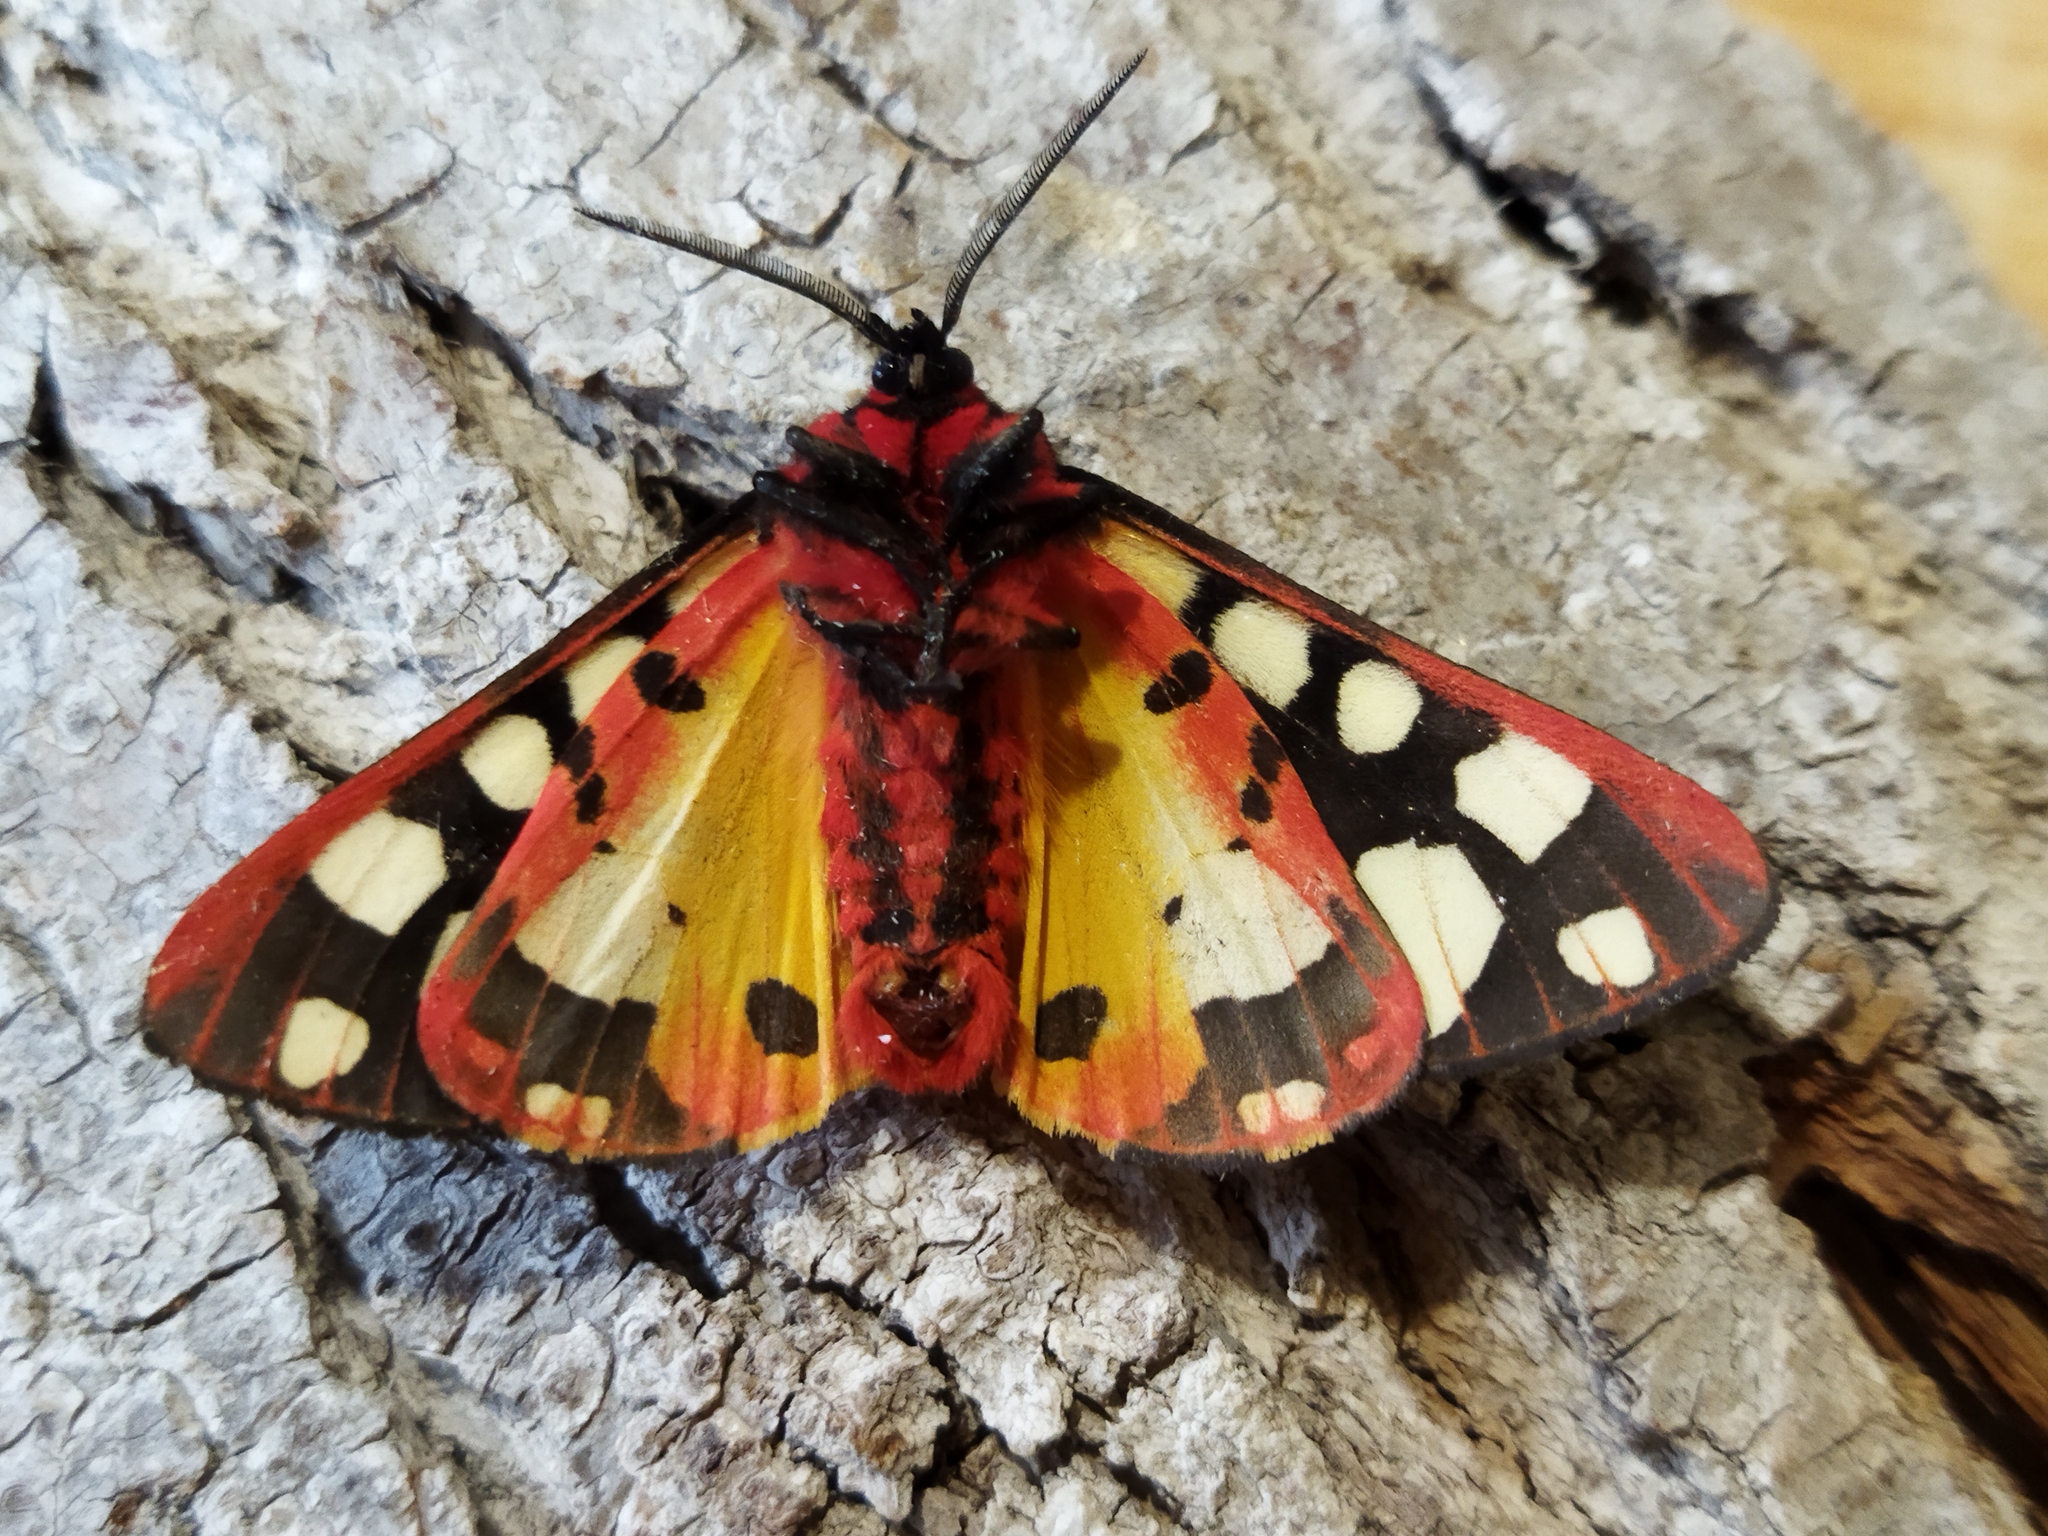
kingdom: Animalia
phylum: Arthropoda
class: Insecta
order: Lepidoptera
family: Erebidae
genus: Epicallia
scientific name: Epicallia villica
